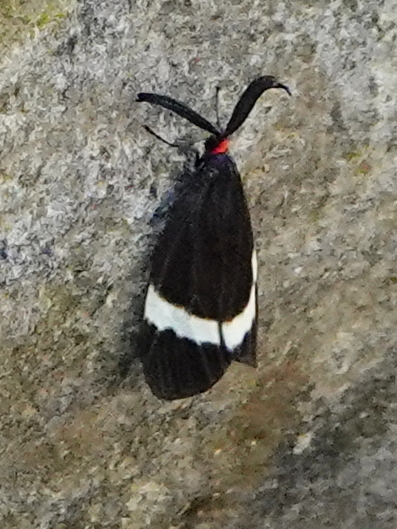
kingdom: Animalia
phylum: Arthropoda
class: Insecta
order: Lepidoptera
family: Zygaenidae
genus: Pidorus
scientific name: Pidorus glaucopis
